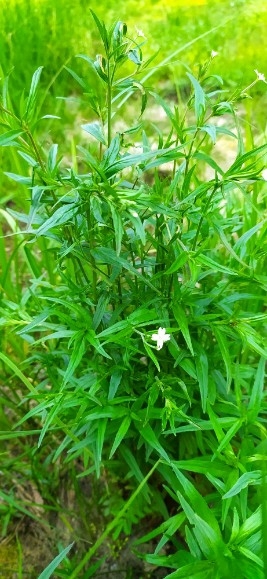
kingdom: Plantae
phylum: Tracheophyta
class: Magnoliopsida
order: Myrtales
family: Onagraceae
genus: Epilobium
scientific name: Epilobium palustre
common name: Marsh willowherb
